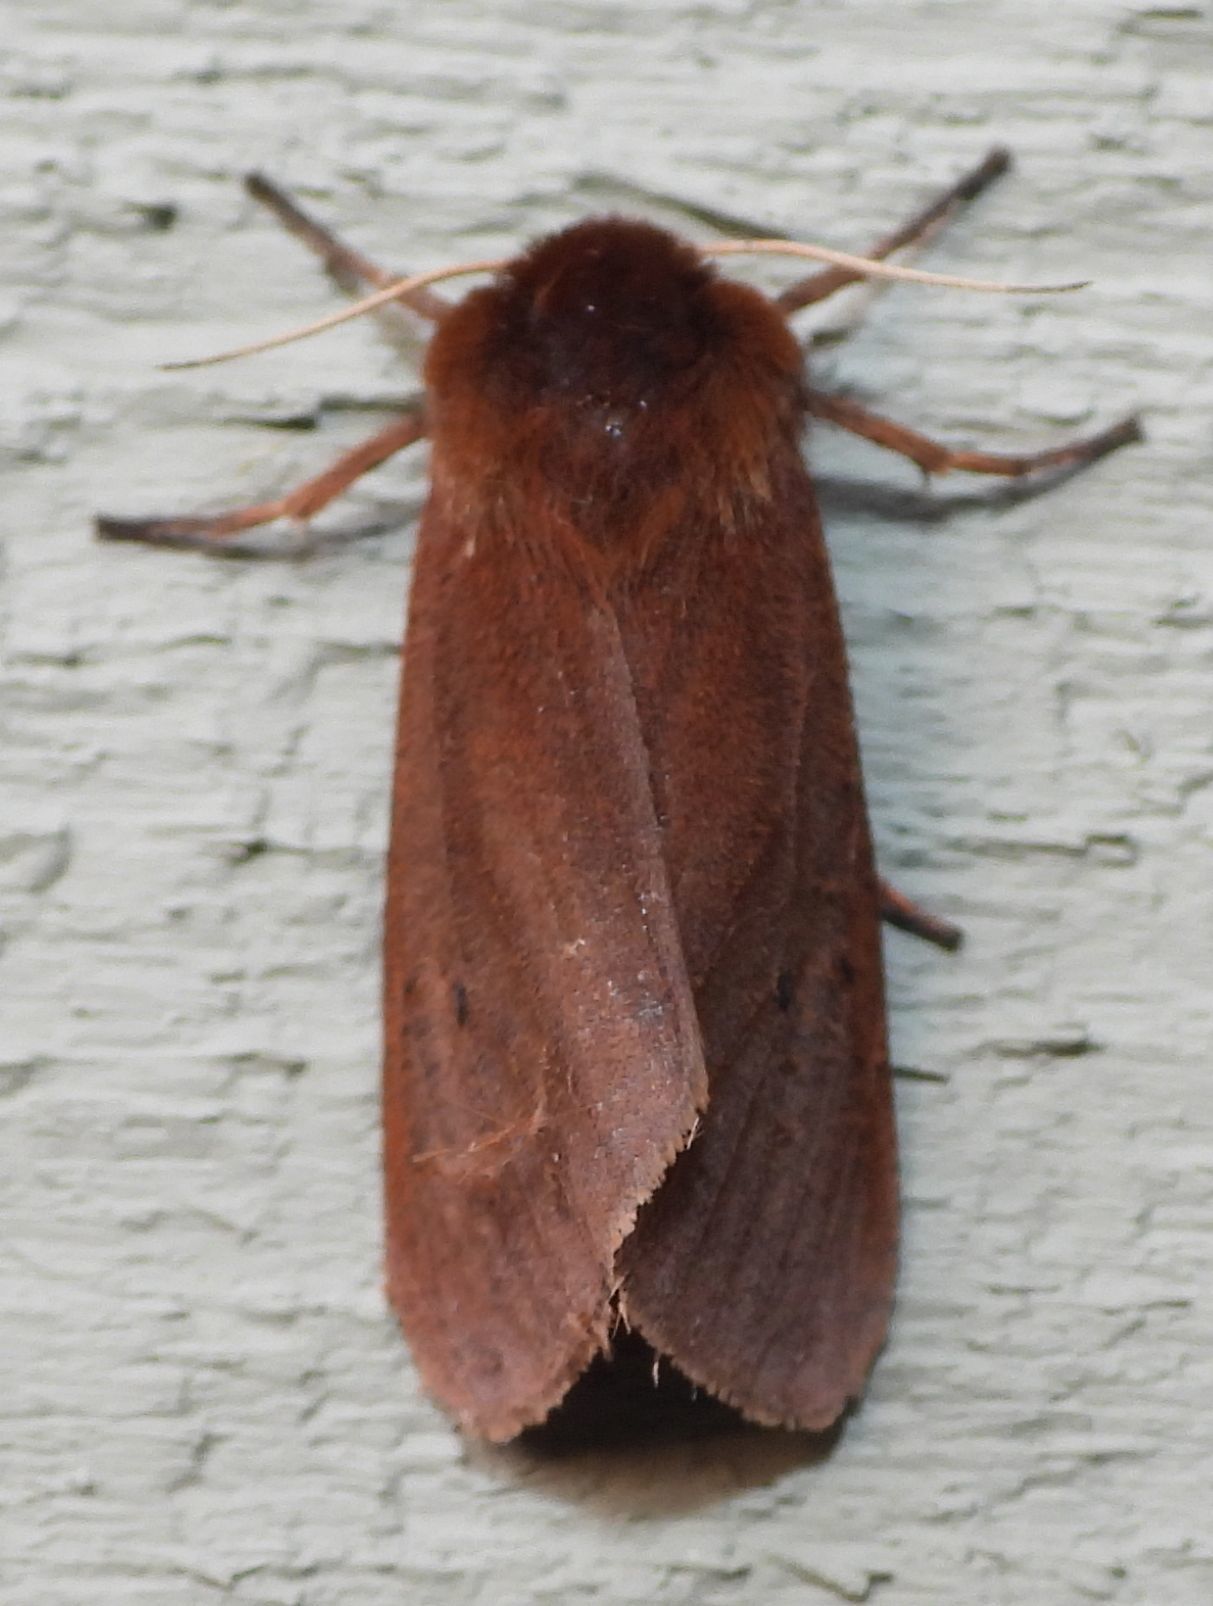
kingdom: Animalia
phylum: Arthropoda
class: Insecta
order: Lepidoptera
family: Erebidae
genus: Phragmatobia
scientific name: Phragmatobia fuliginosa
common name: Ruby tiger
